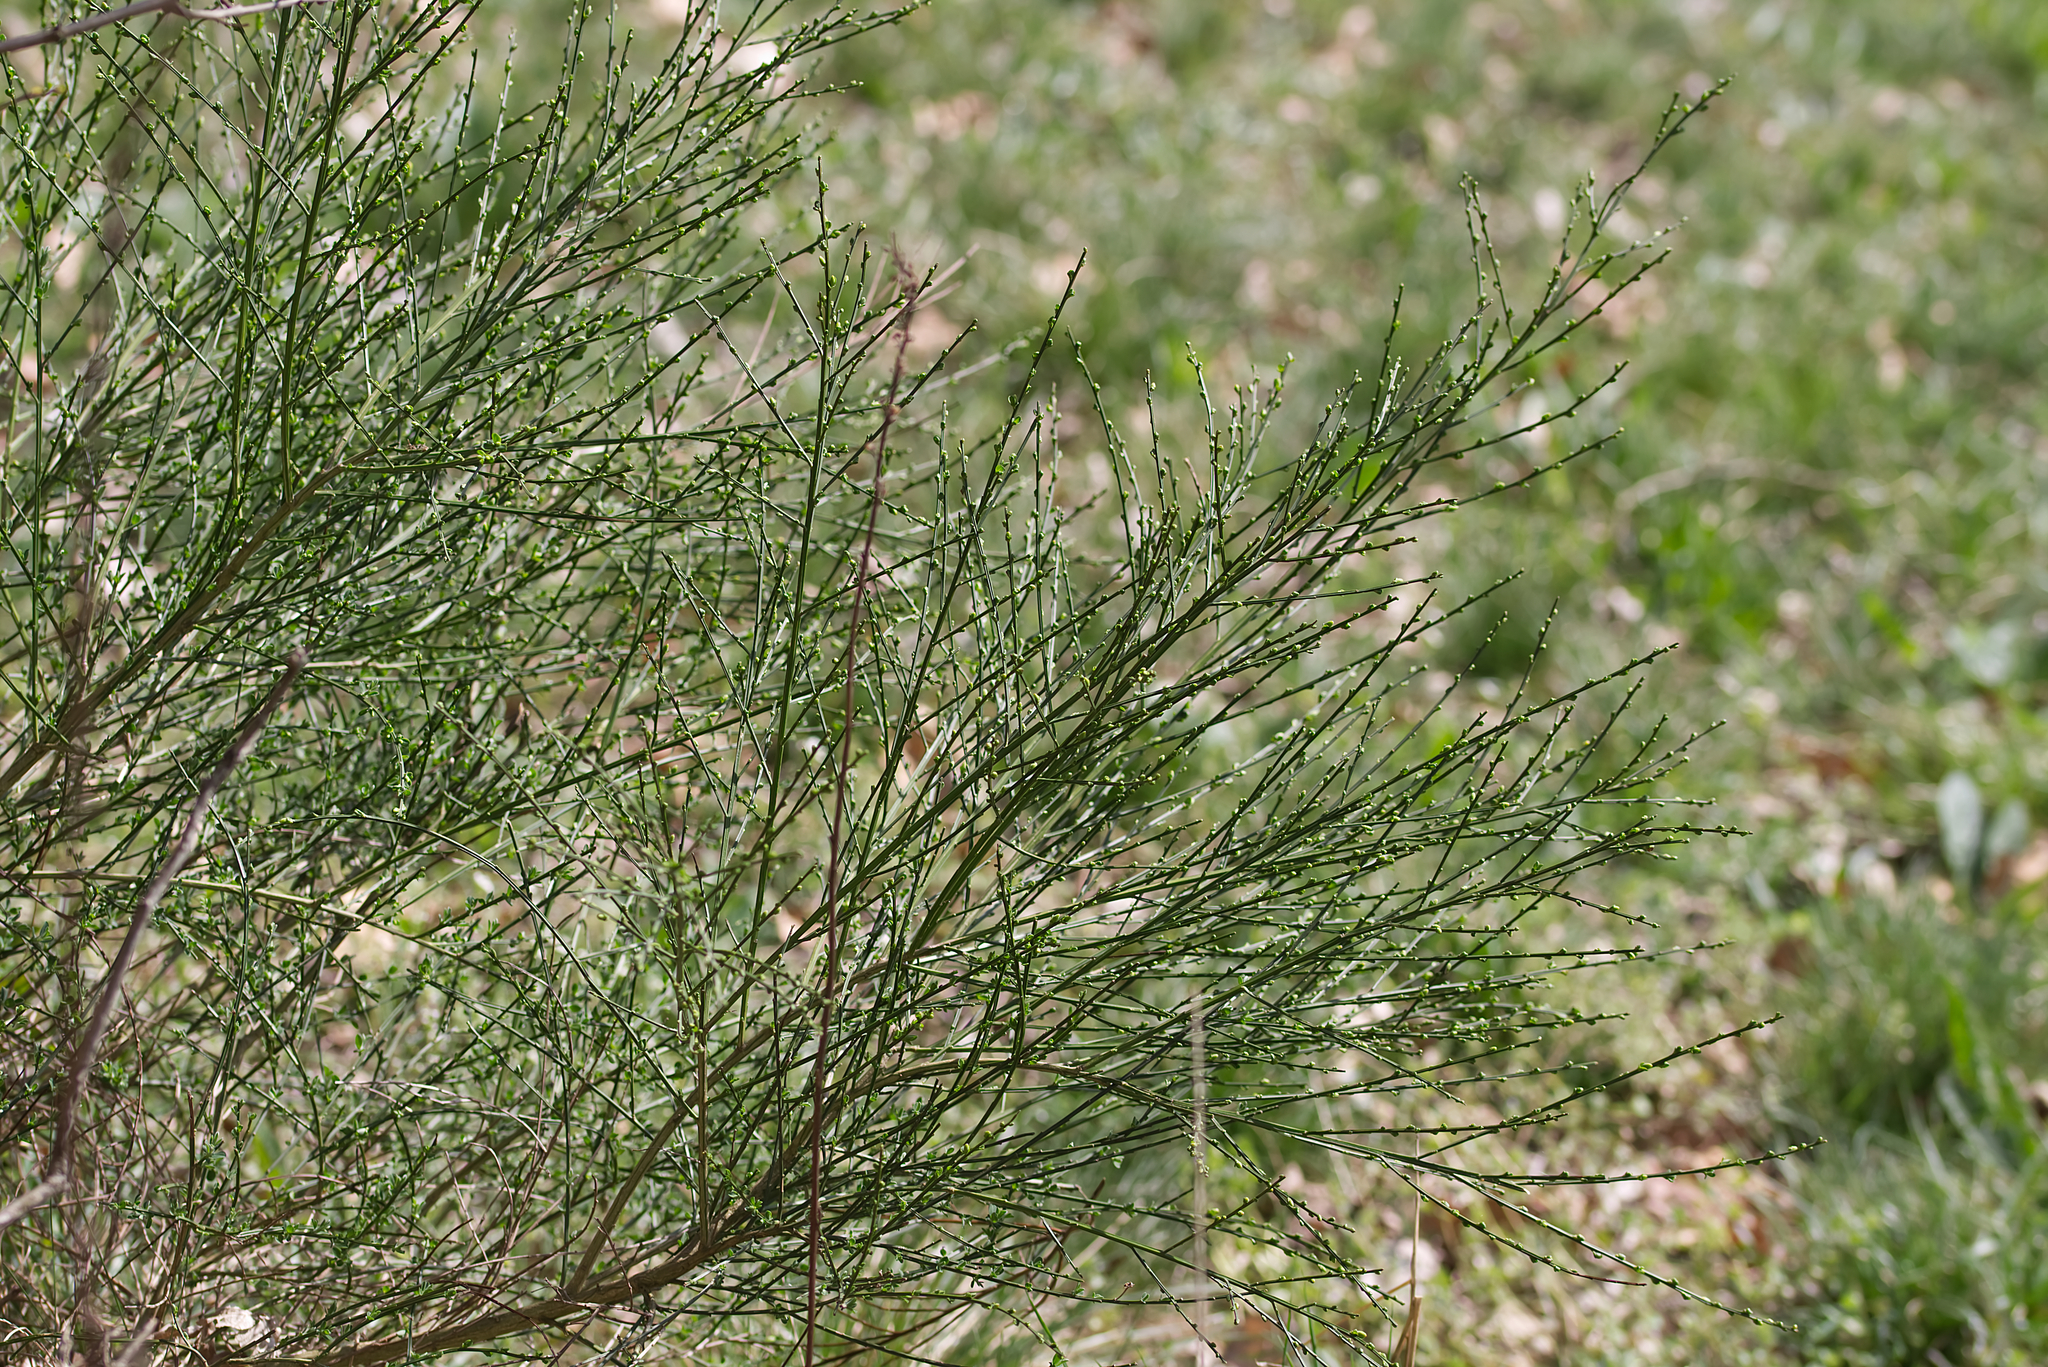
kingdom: Plantae
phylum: Tracheophyta
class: Magnoliopsida
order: Fabales
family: Fabaceae
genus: Cytisus
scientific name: Cytisus scoparius
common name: Scotch broom
